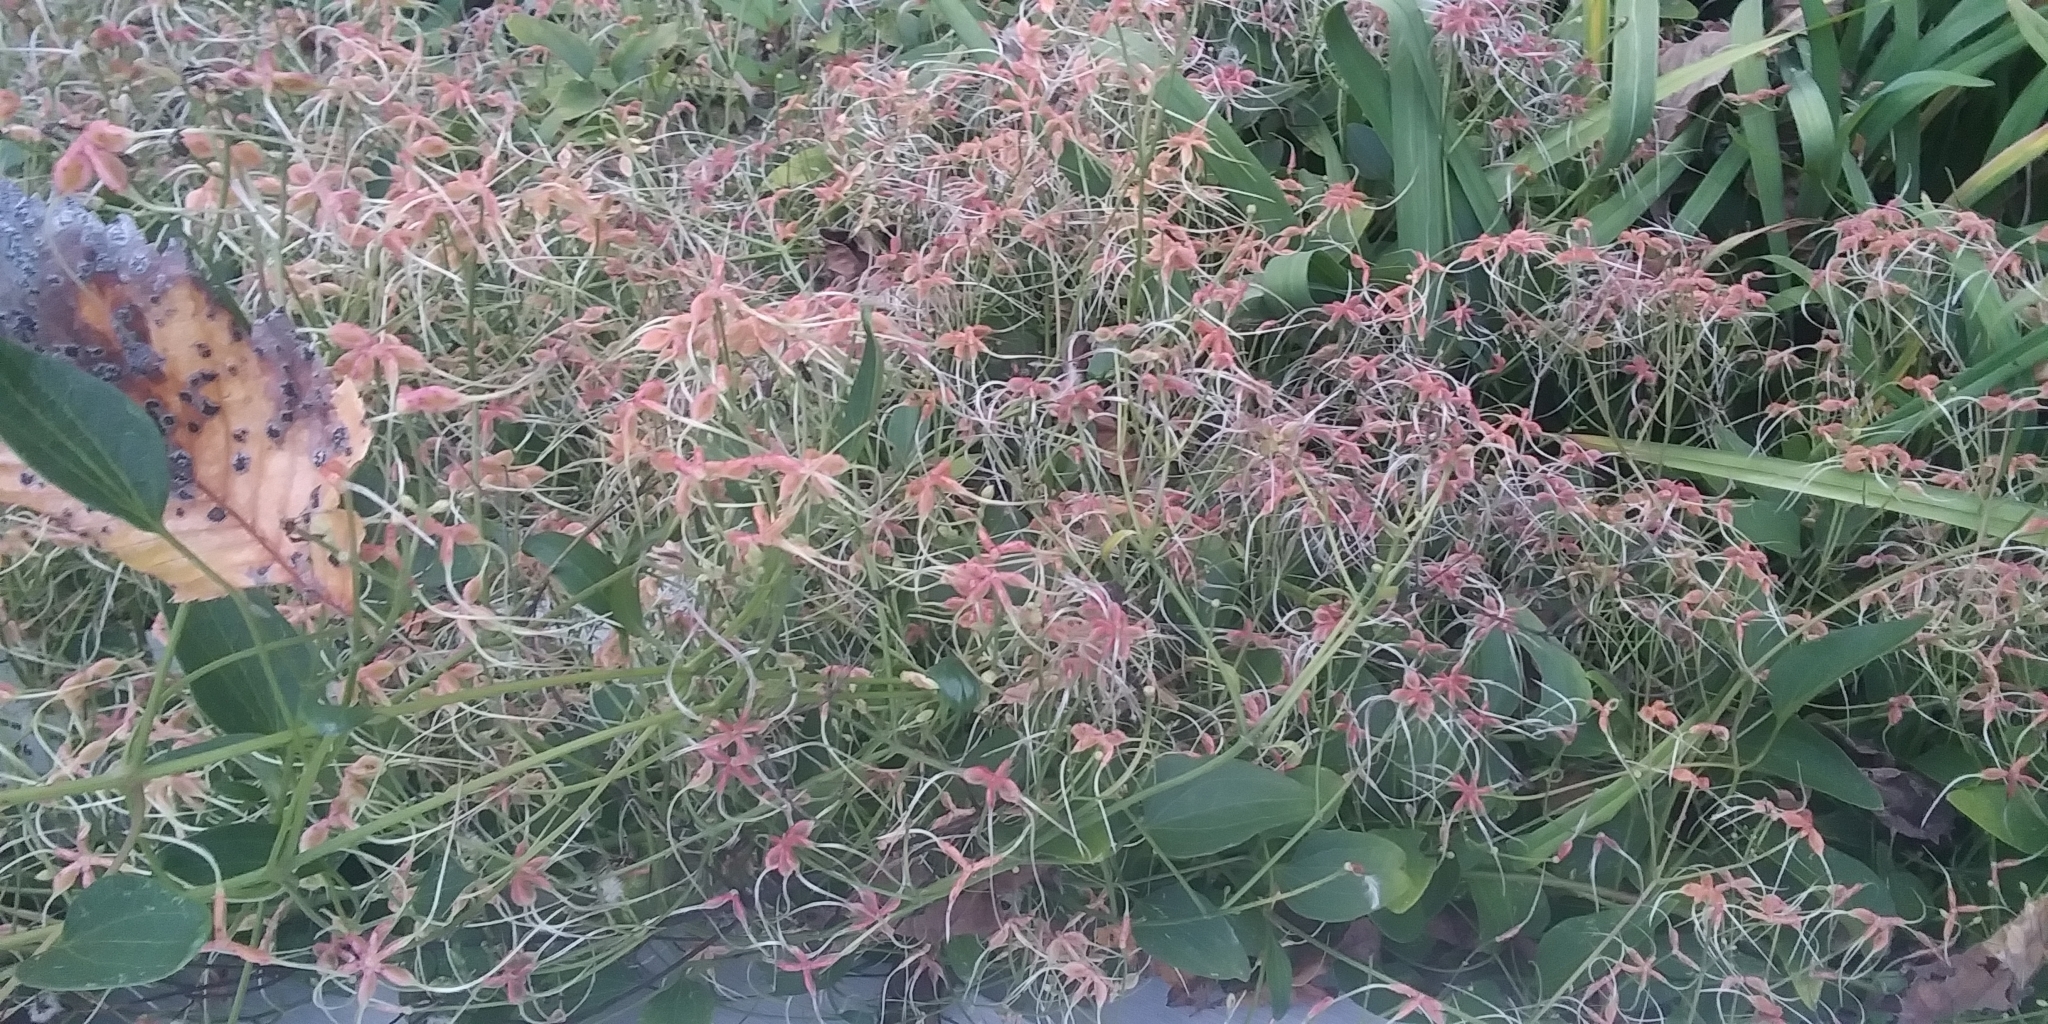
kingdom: Plantae
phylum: Tracheophyta
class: Magnoliopsida
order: Ranunculales
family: Ranunculaceae
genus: Clematis
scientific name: Clematis terniflora
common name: Sweet autumn clematis
